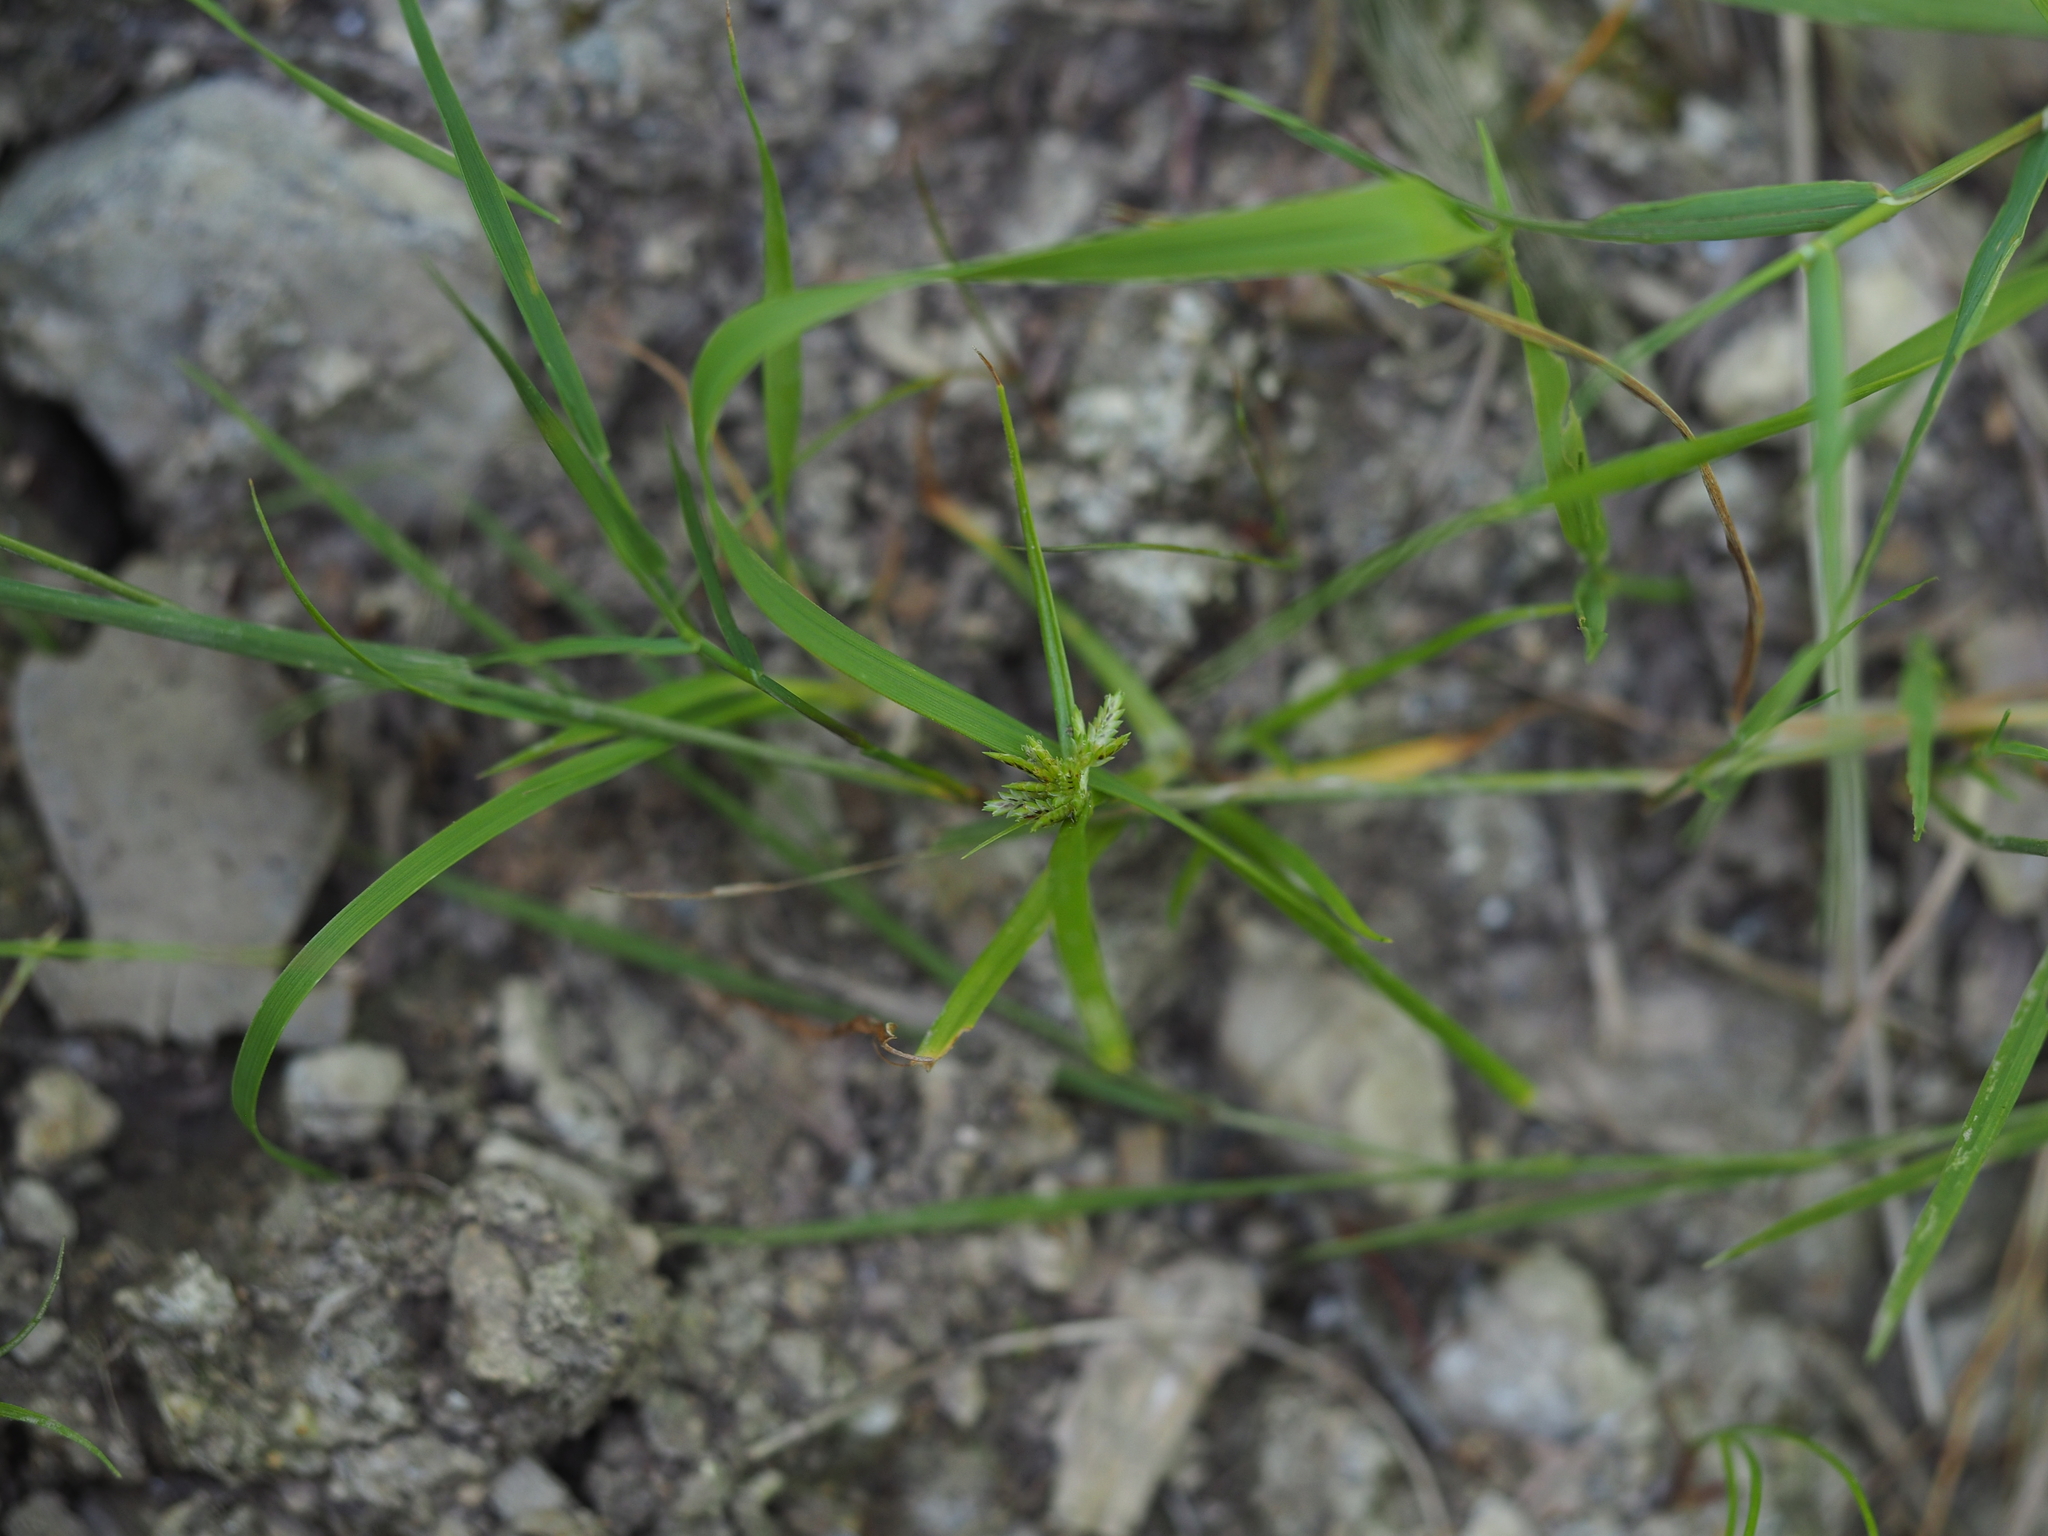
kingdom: Plantae
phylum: Tracheophyta
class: Liliopsida
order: Poales
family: Cyperaceae
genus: Cyperus
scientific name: Cyperus fuscus
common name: Brown galingale
